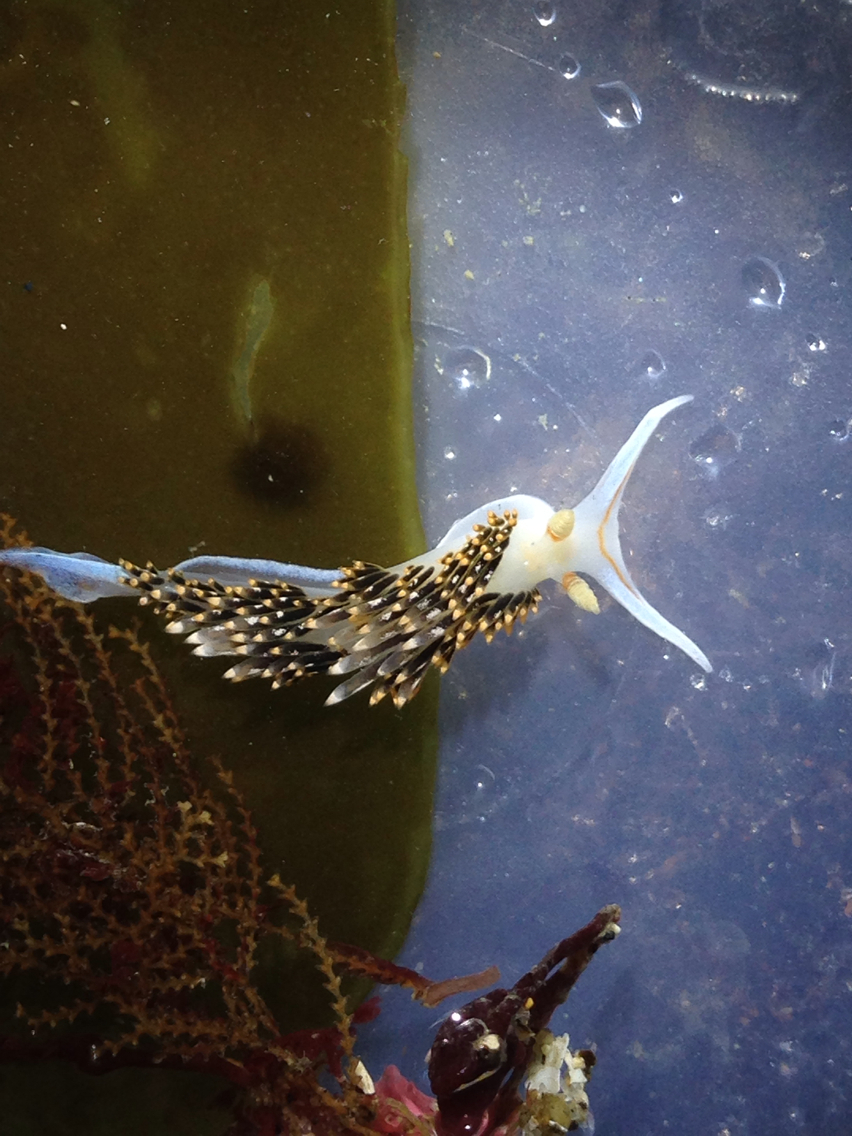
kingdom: Animalia
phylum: Mollusca
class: Gastropoda
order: Nudibranchia
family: Facelinidae
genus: Phidiana
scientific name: Phidiana hiltoni
